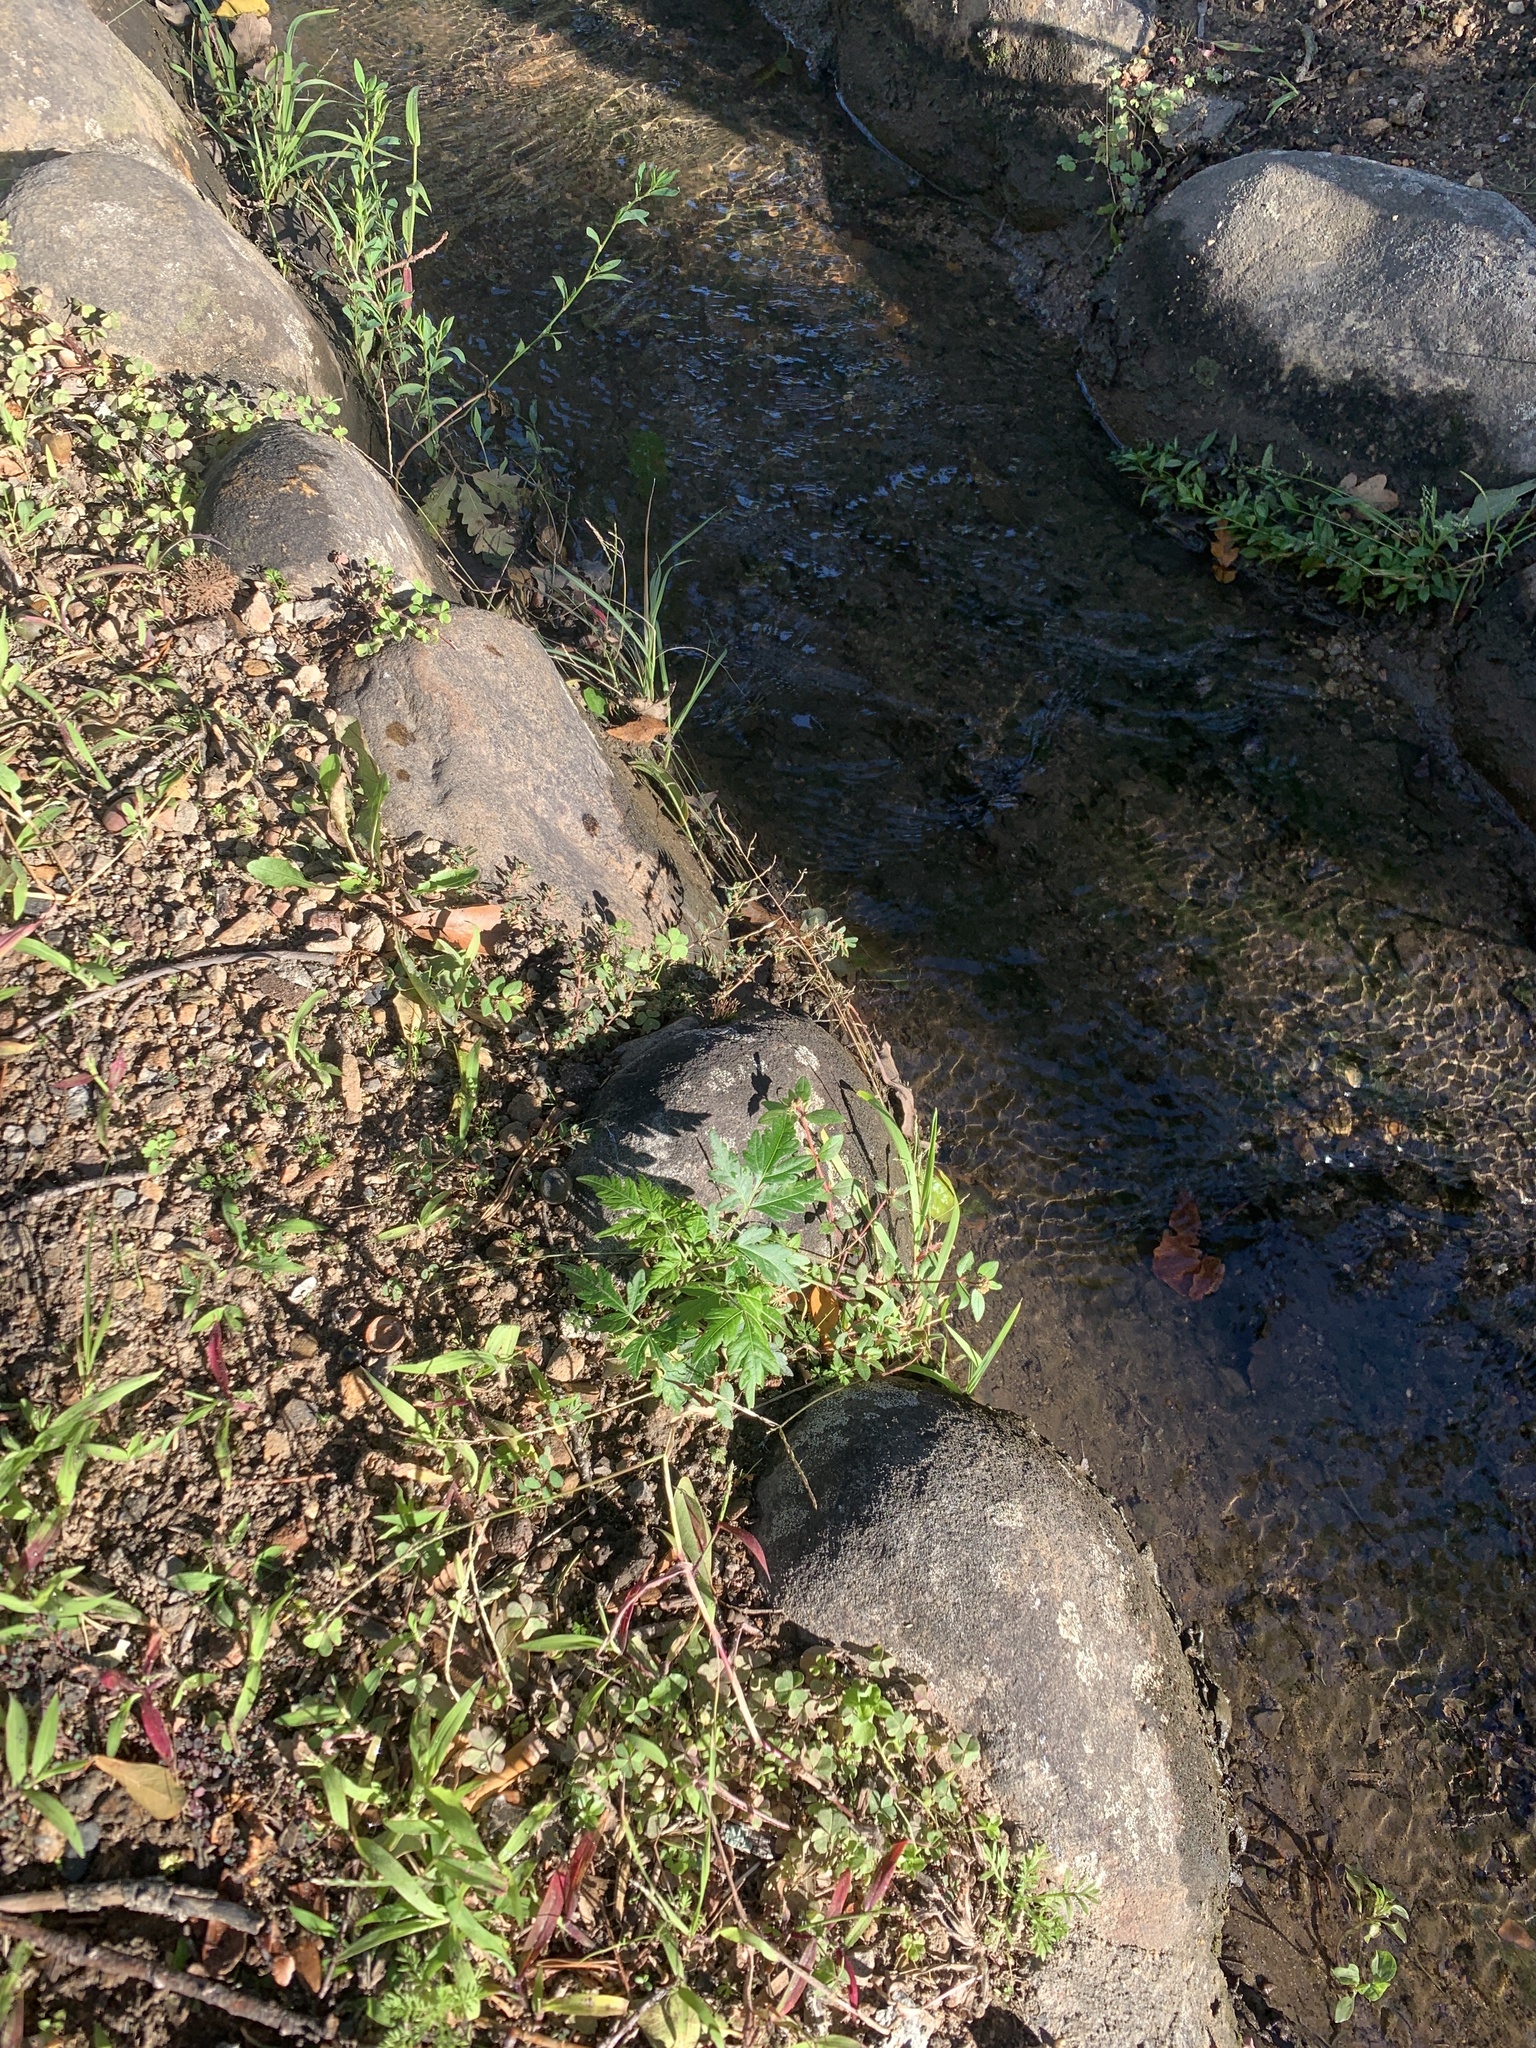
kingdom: Plantae
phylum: Tracheophyta
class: Magnoliopsida
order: Sapindales
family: Meliaceae
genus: Melia
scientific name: Melia azedarach
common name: Chinaberrytree
